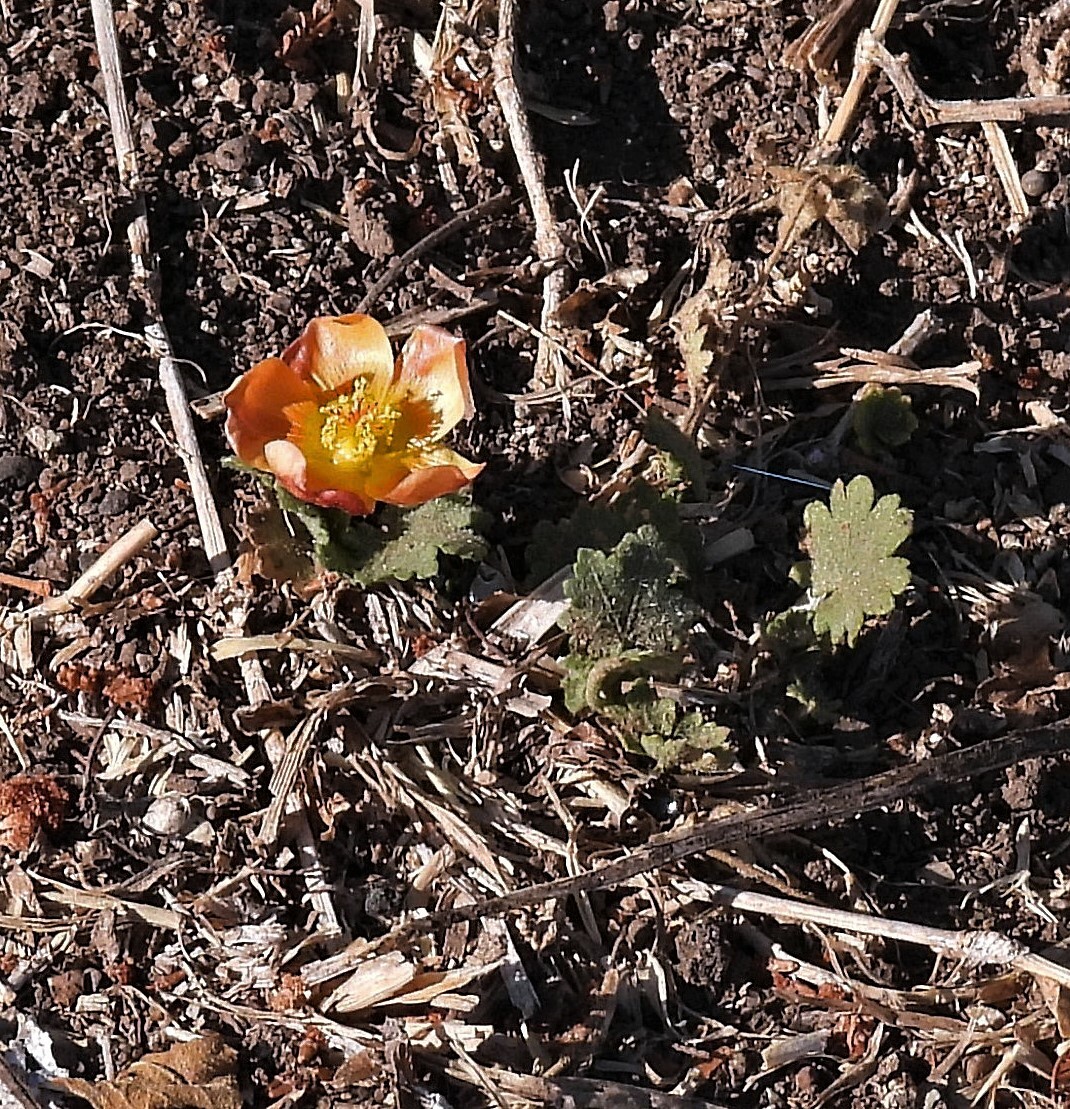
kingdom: Plantae
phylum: Tracheophyta
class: Magnoliopsida
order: Malvales
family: Malvaceae
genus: Modiolastrum
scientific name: Modiolastrum malvifolium
